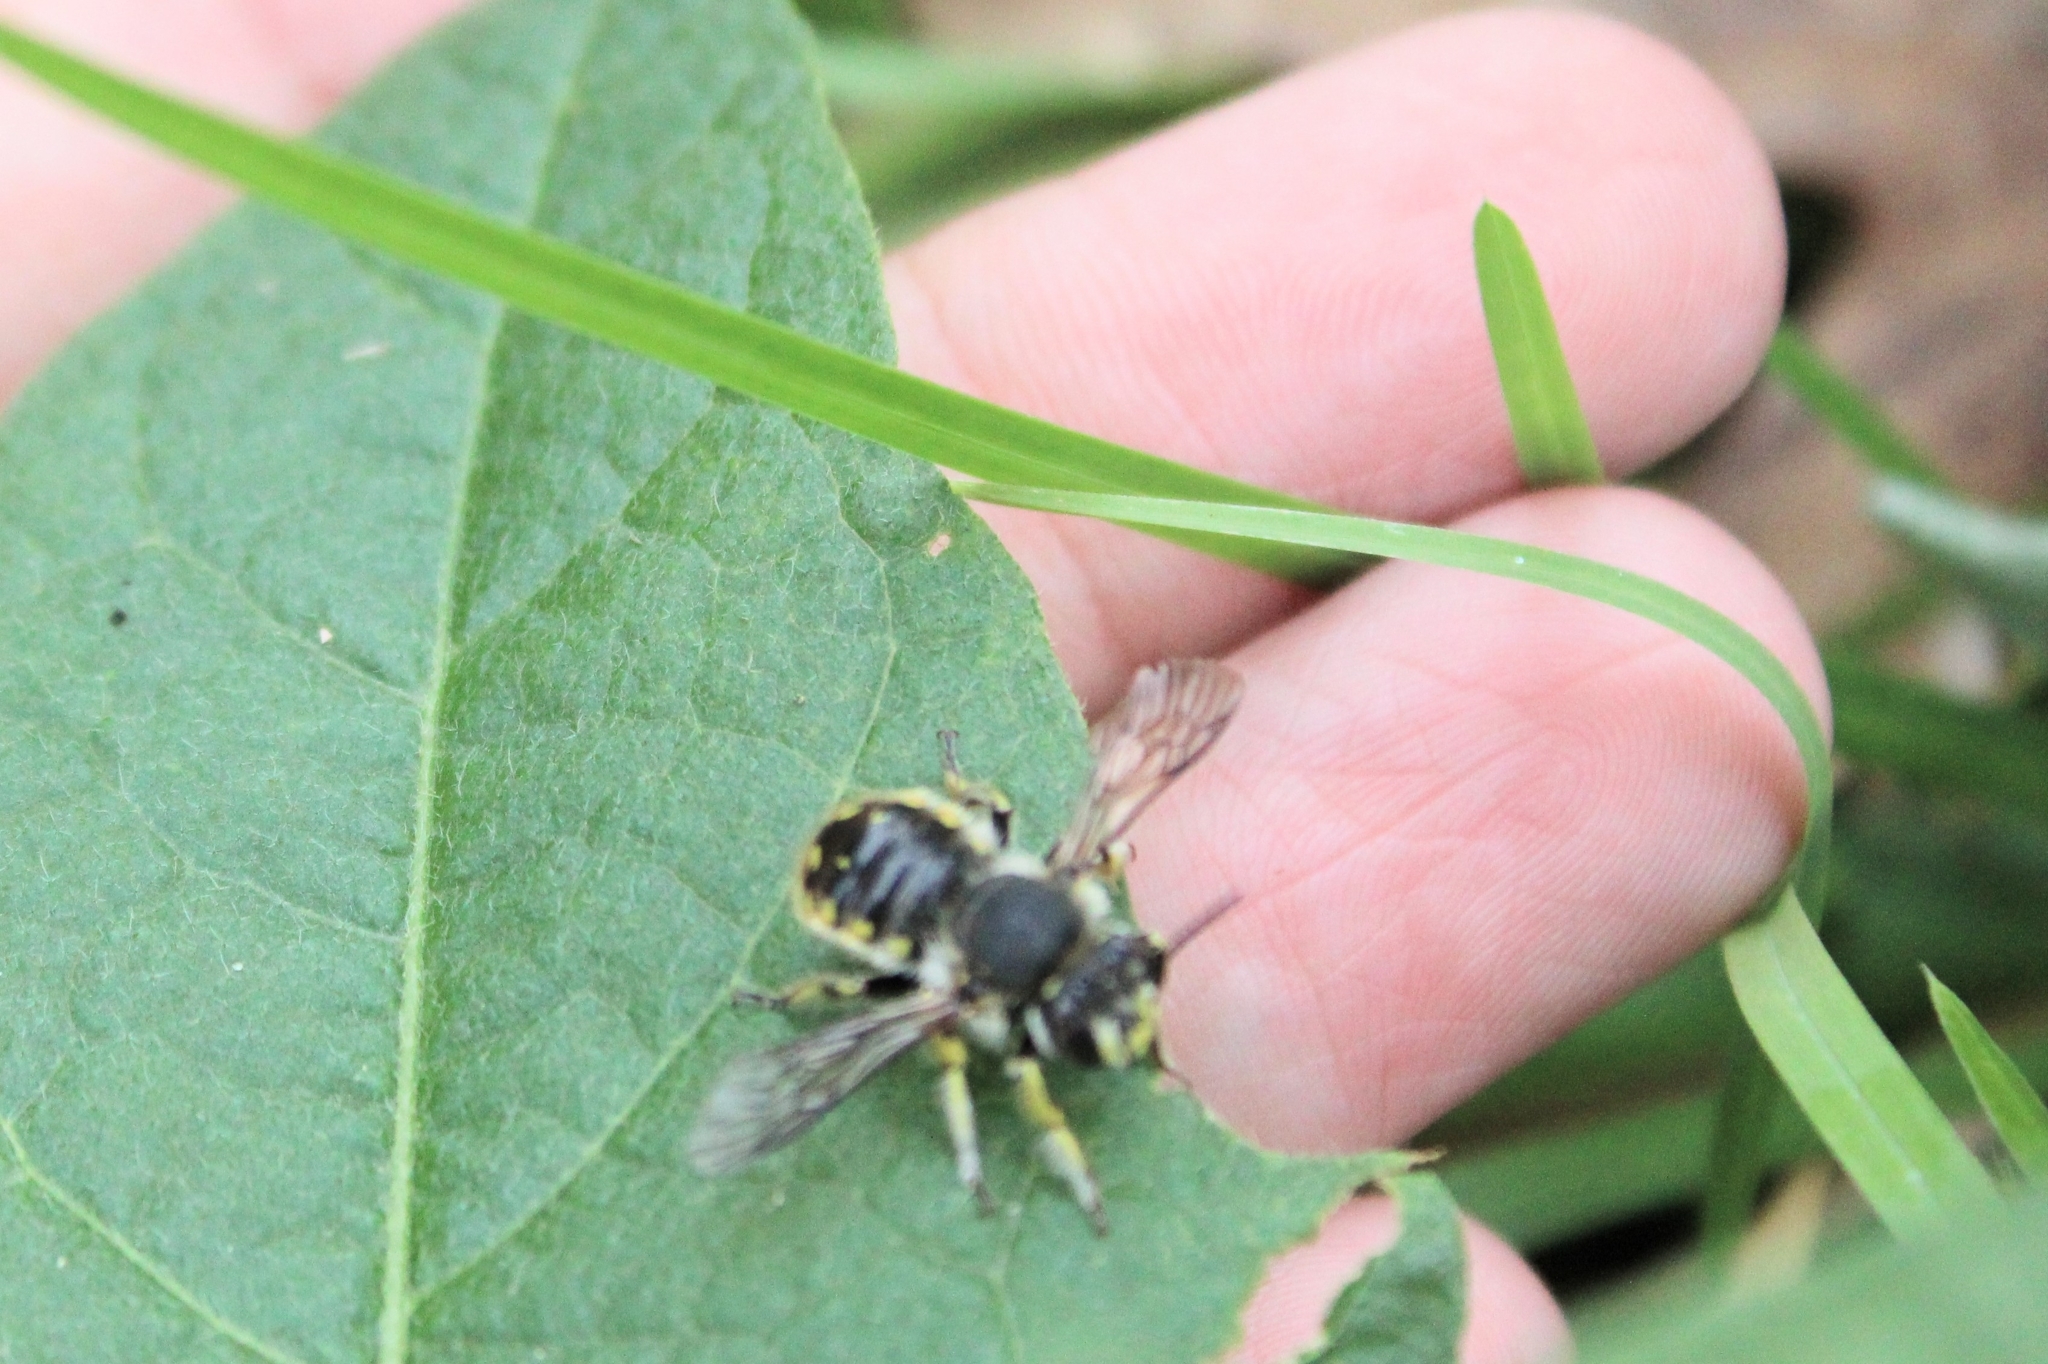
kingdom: Animalia
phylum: Arthropoda
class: Insecta
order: Hymenoptera
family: Megachilidae
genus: Anthidium
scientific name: Anthidium manicatum
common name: Wool carder bee
